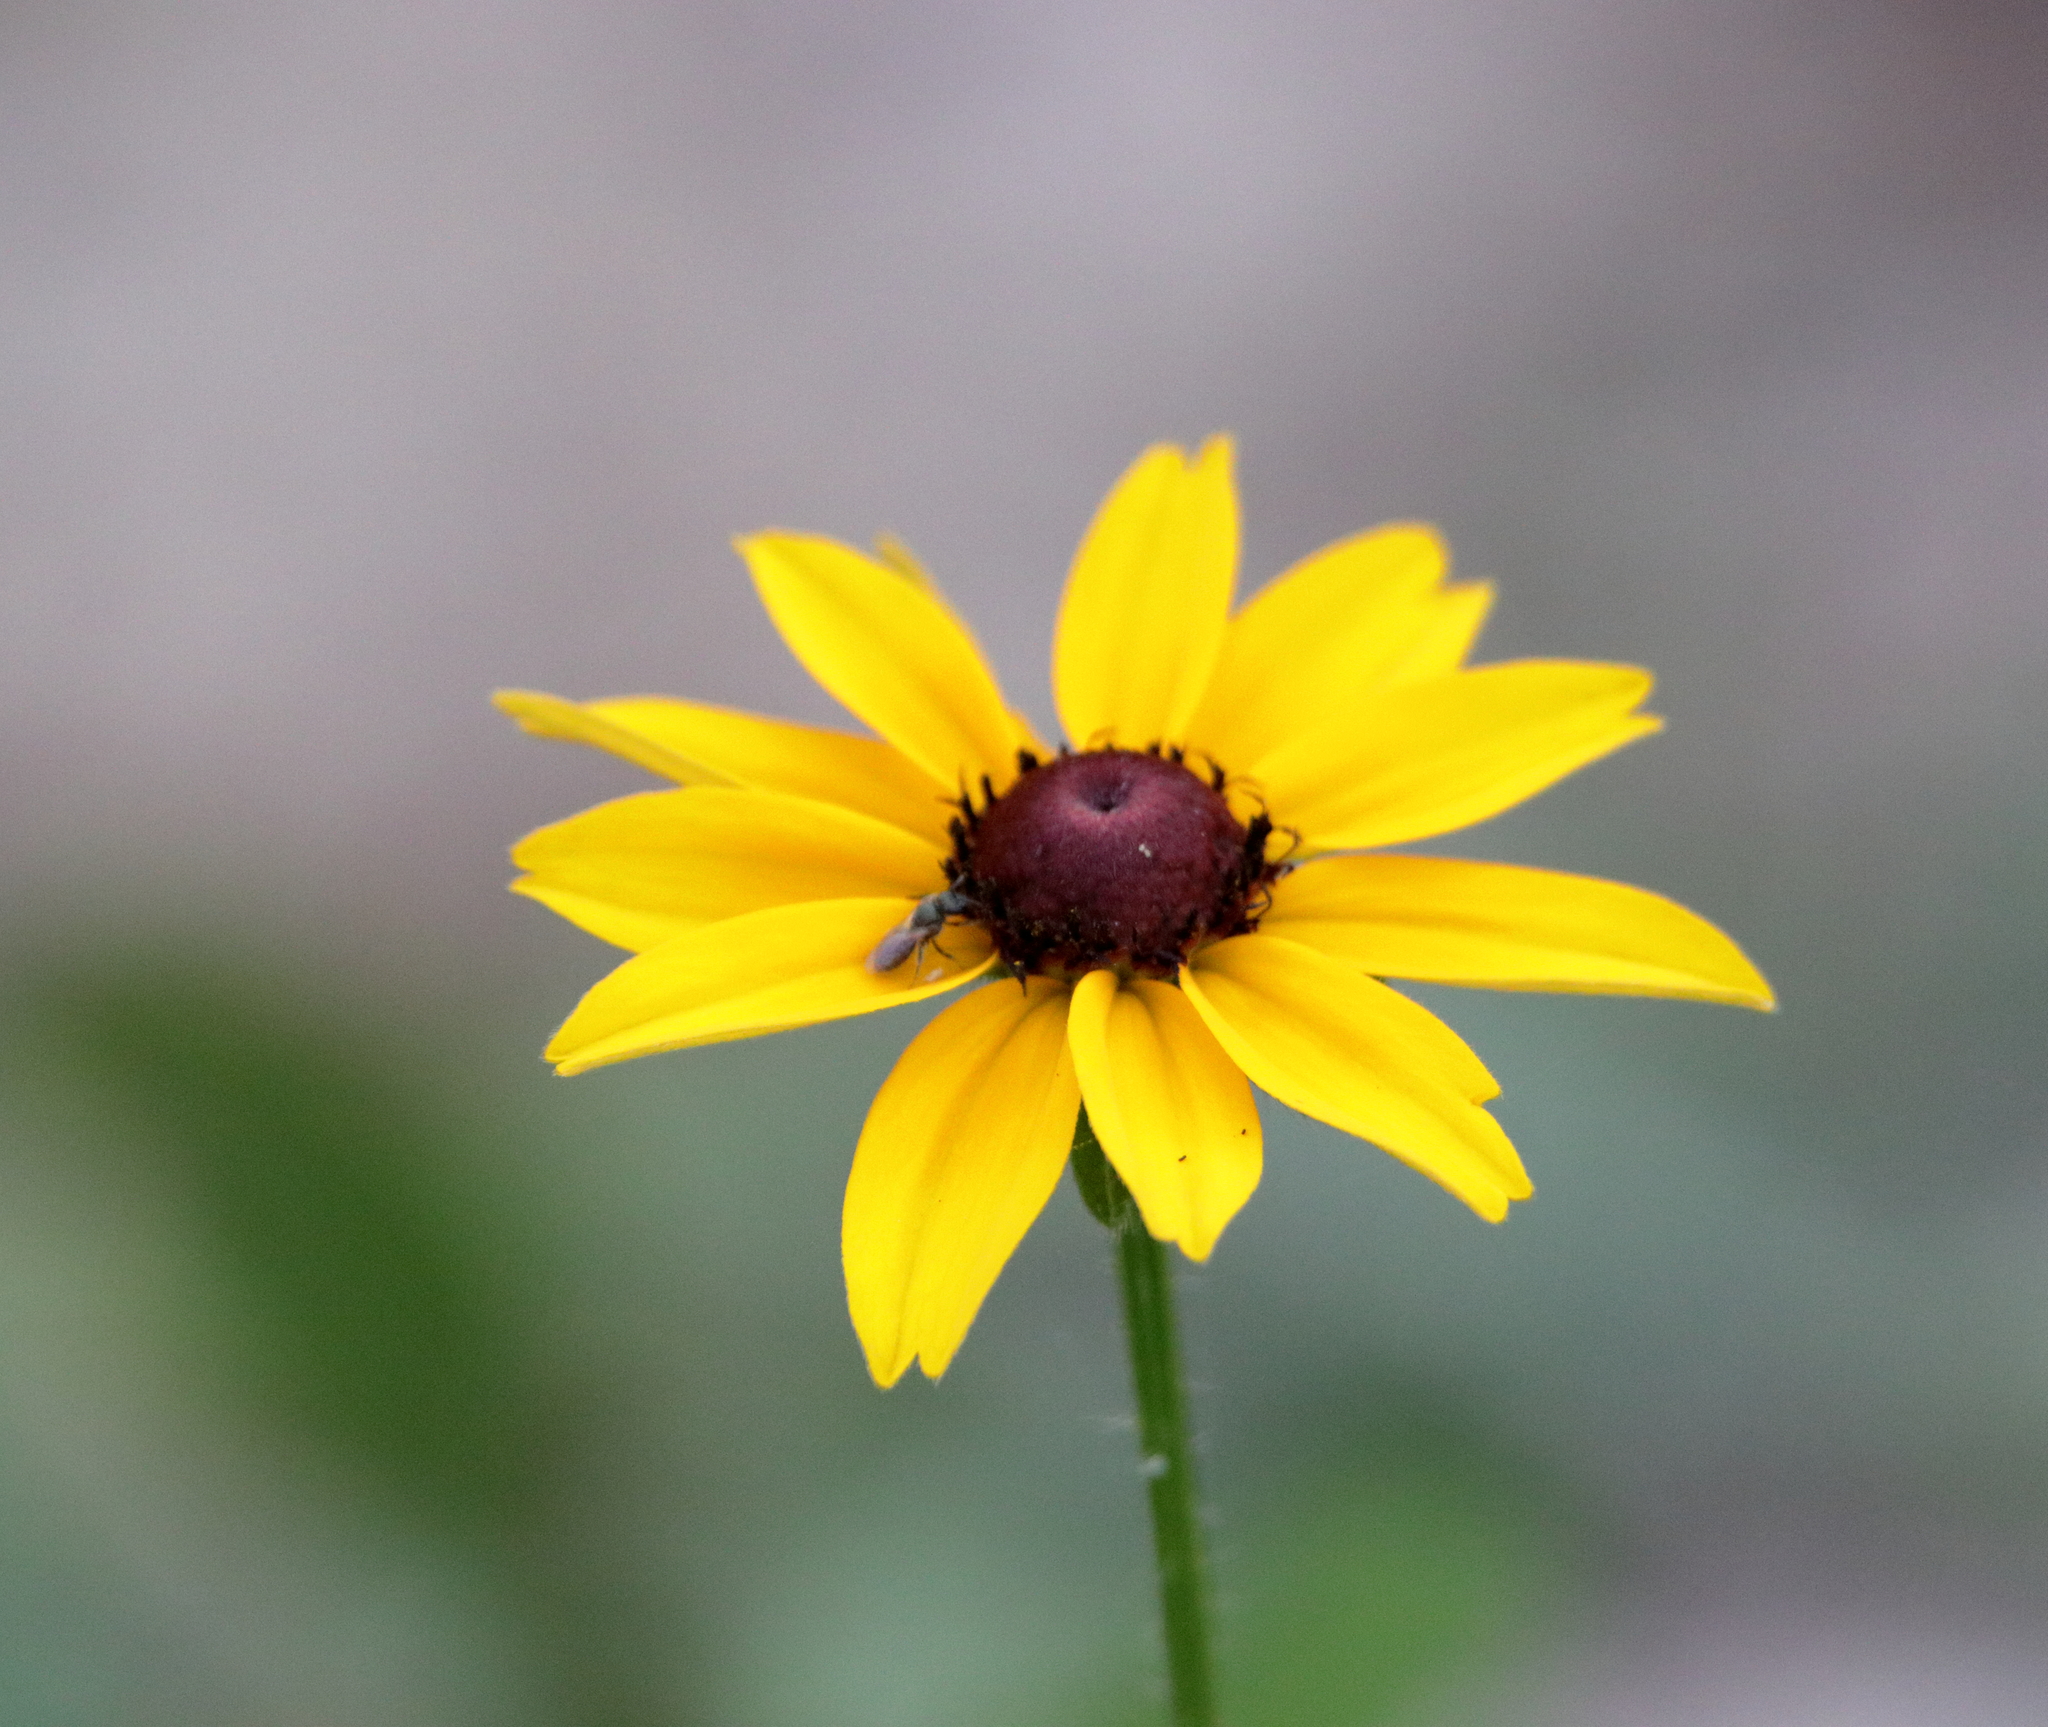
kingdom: Plantae
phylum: Tracheophyta
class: Magnoliopsida
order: Asterales
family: Asteraceae
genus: Rudbeckia
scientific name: Rudbeckia hirta
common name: Black-eyed-susan
